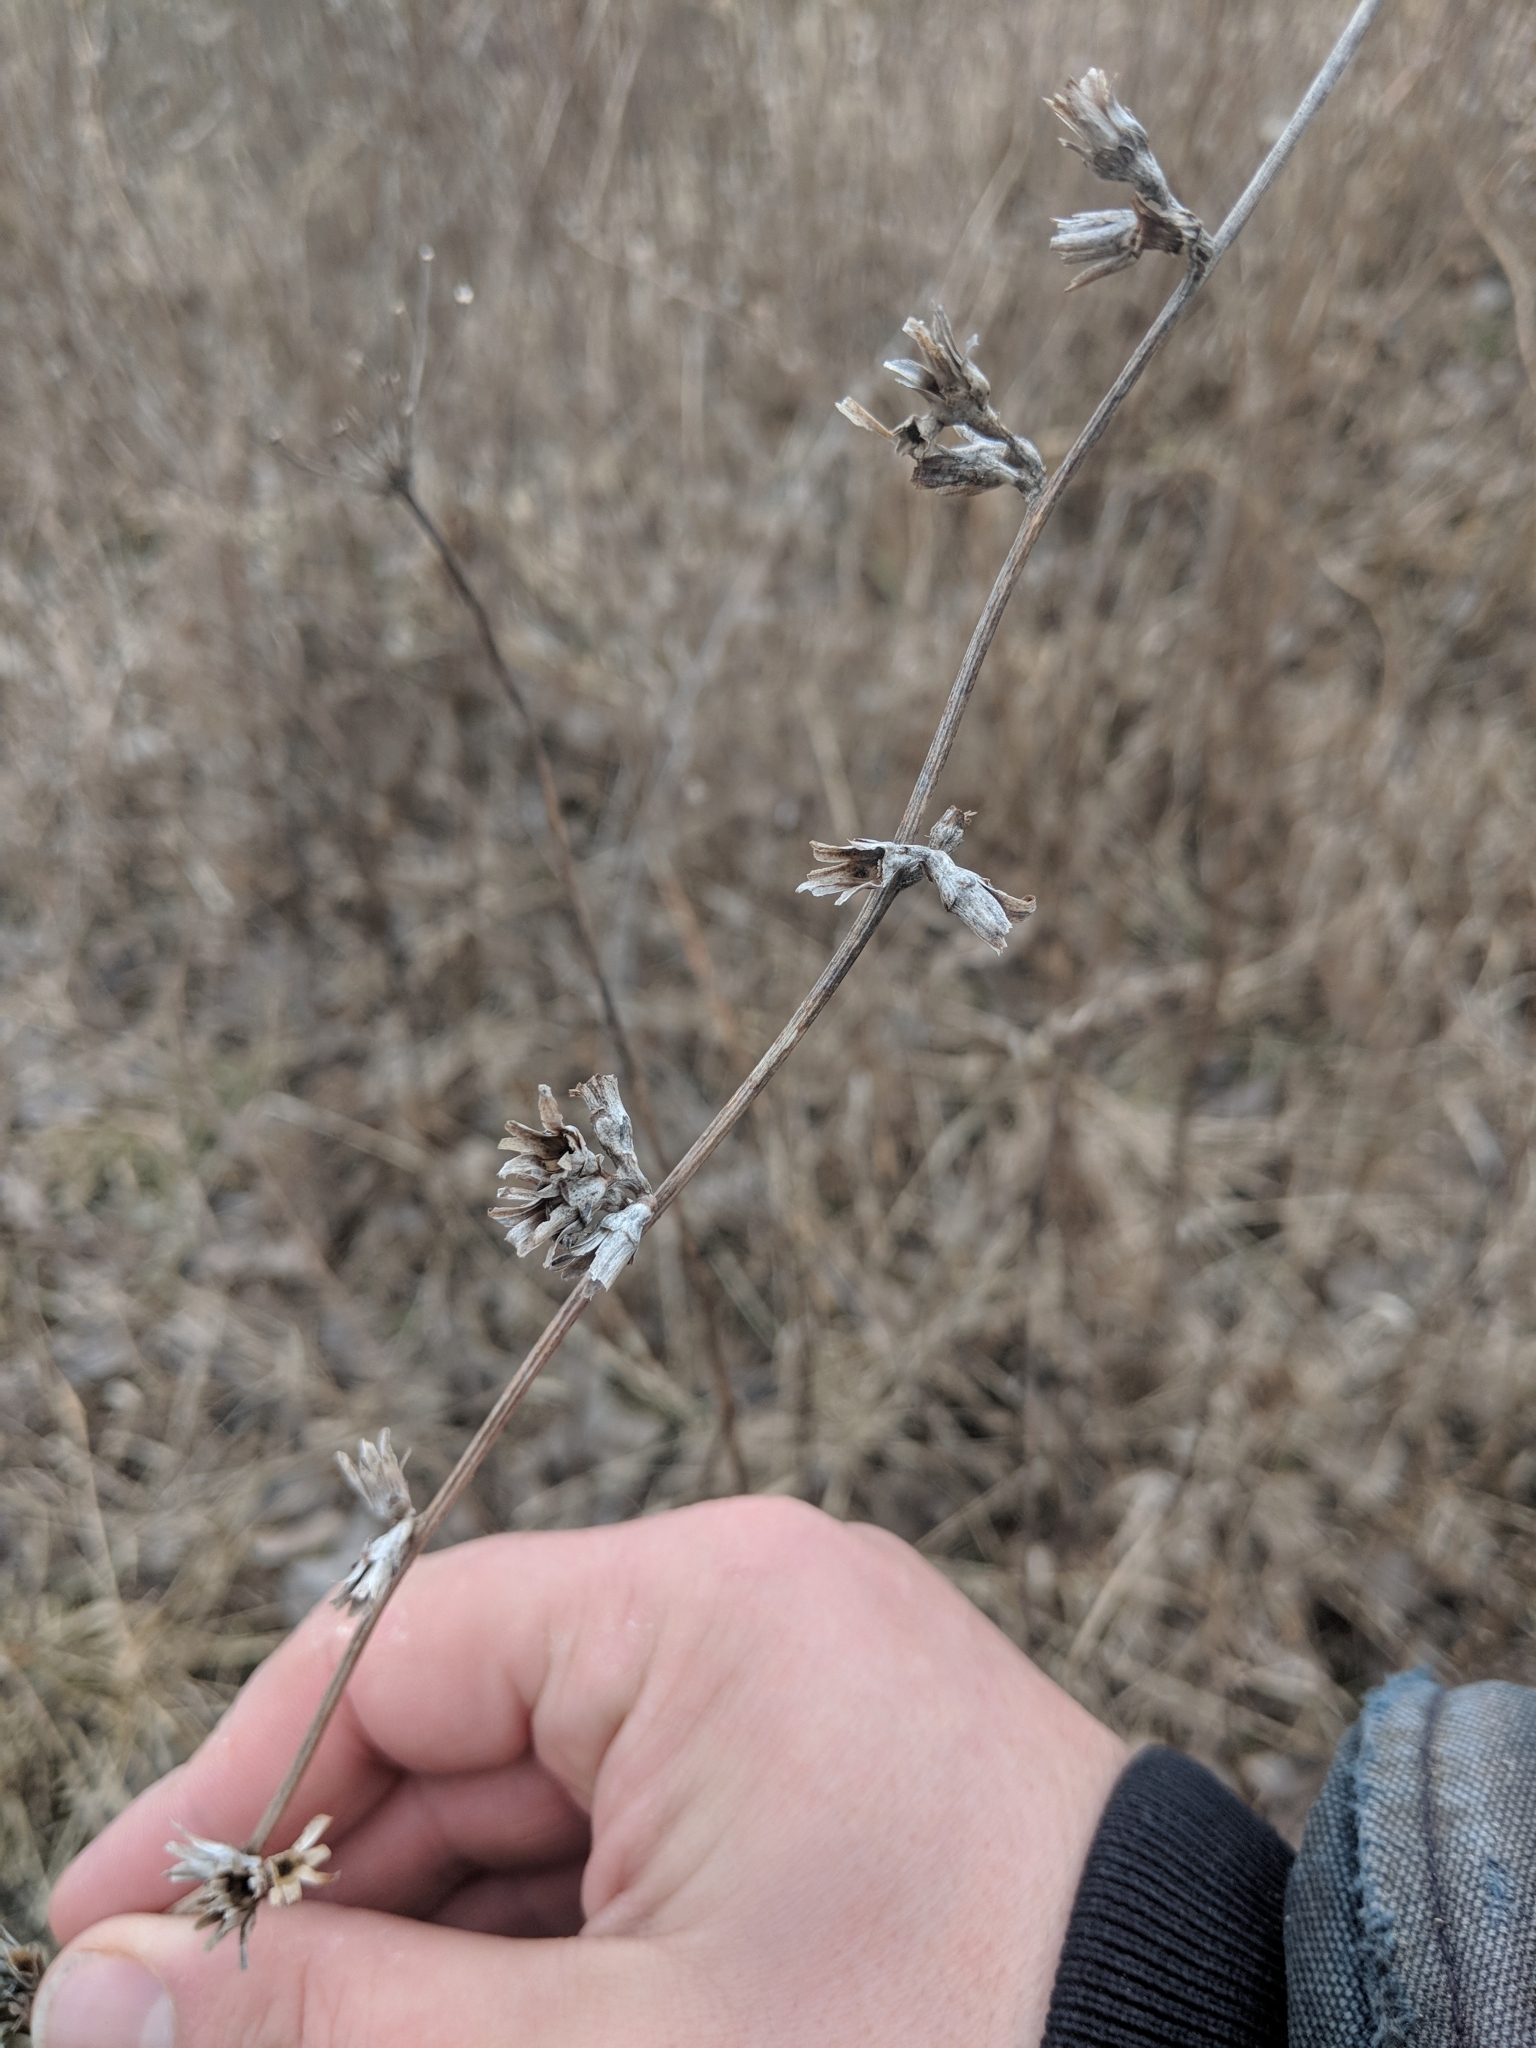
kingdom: Plantae
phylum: Tracheophyta
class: Magnoliopsida
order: Asterales
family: Asteraceae
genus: Cichorium
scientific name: Cichorium intybus
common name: Chicory
